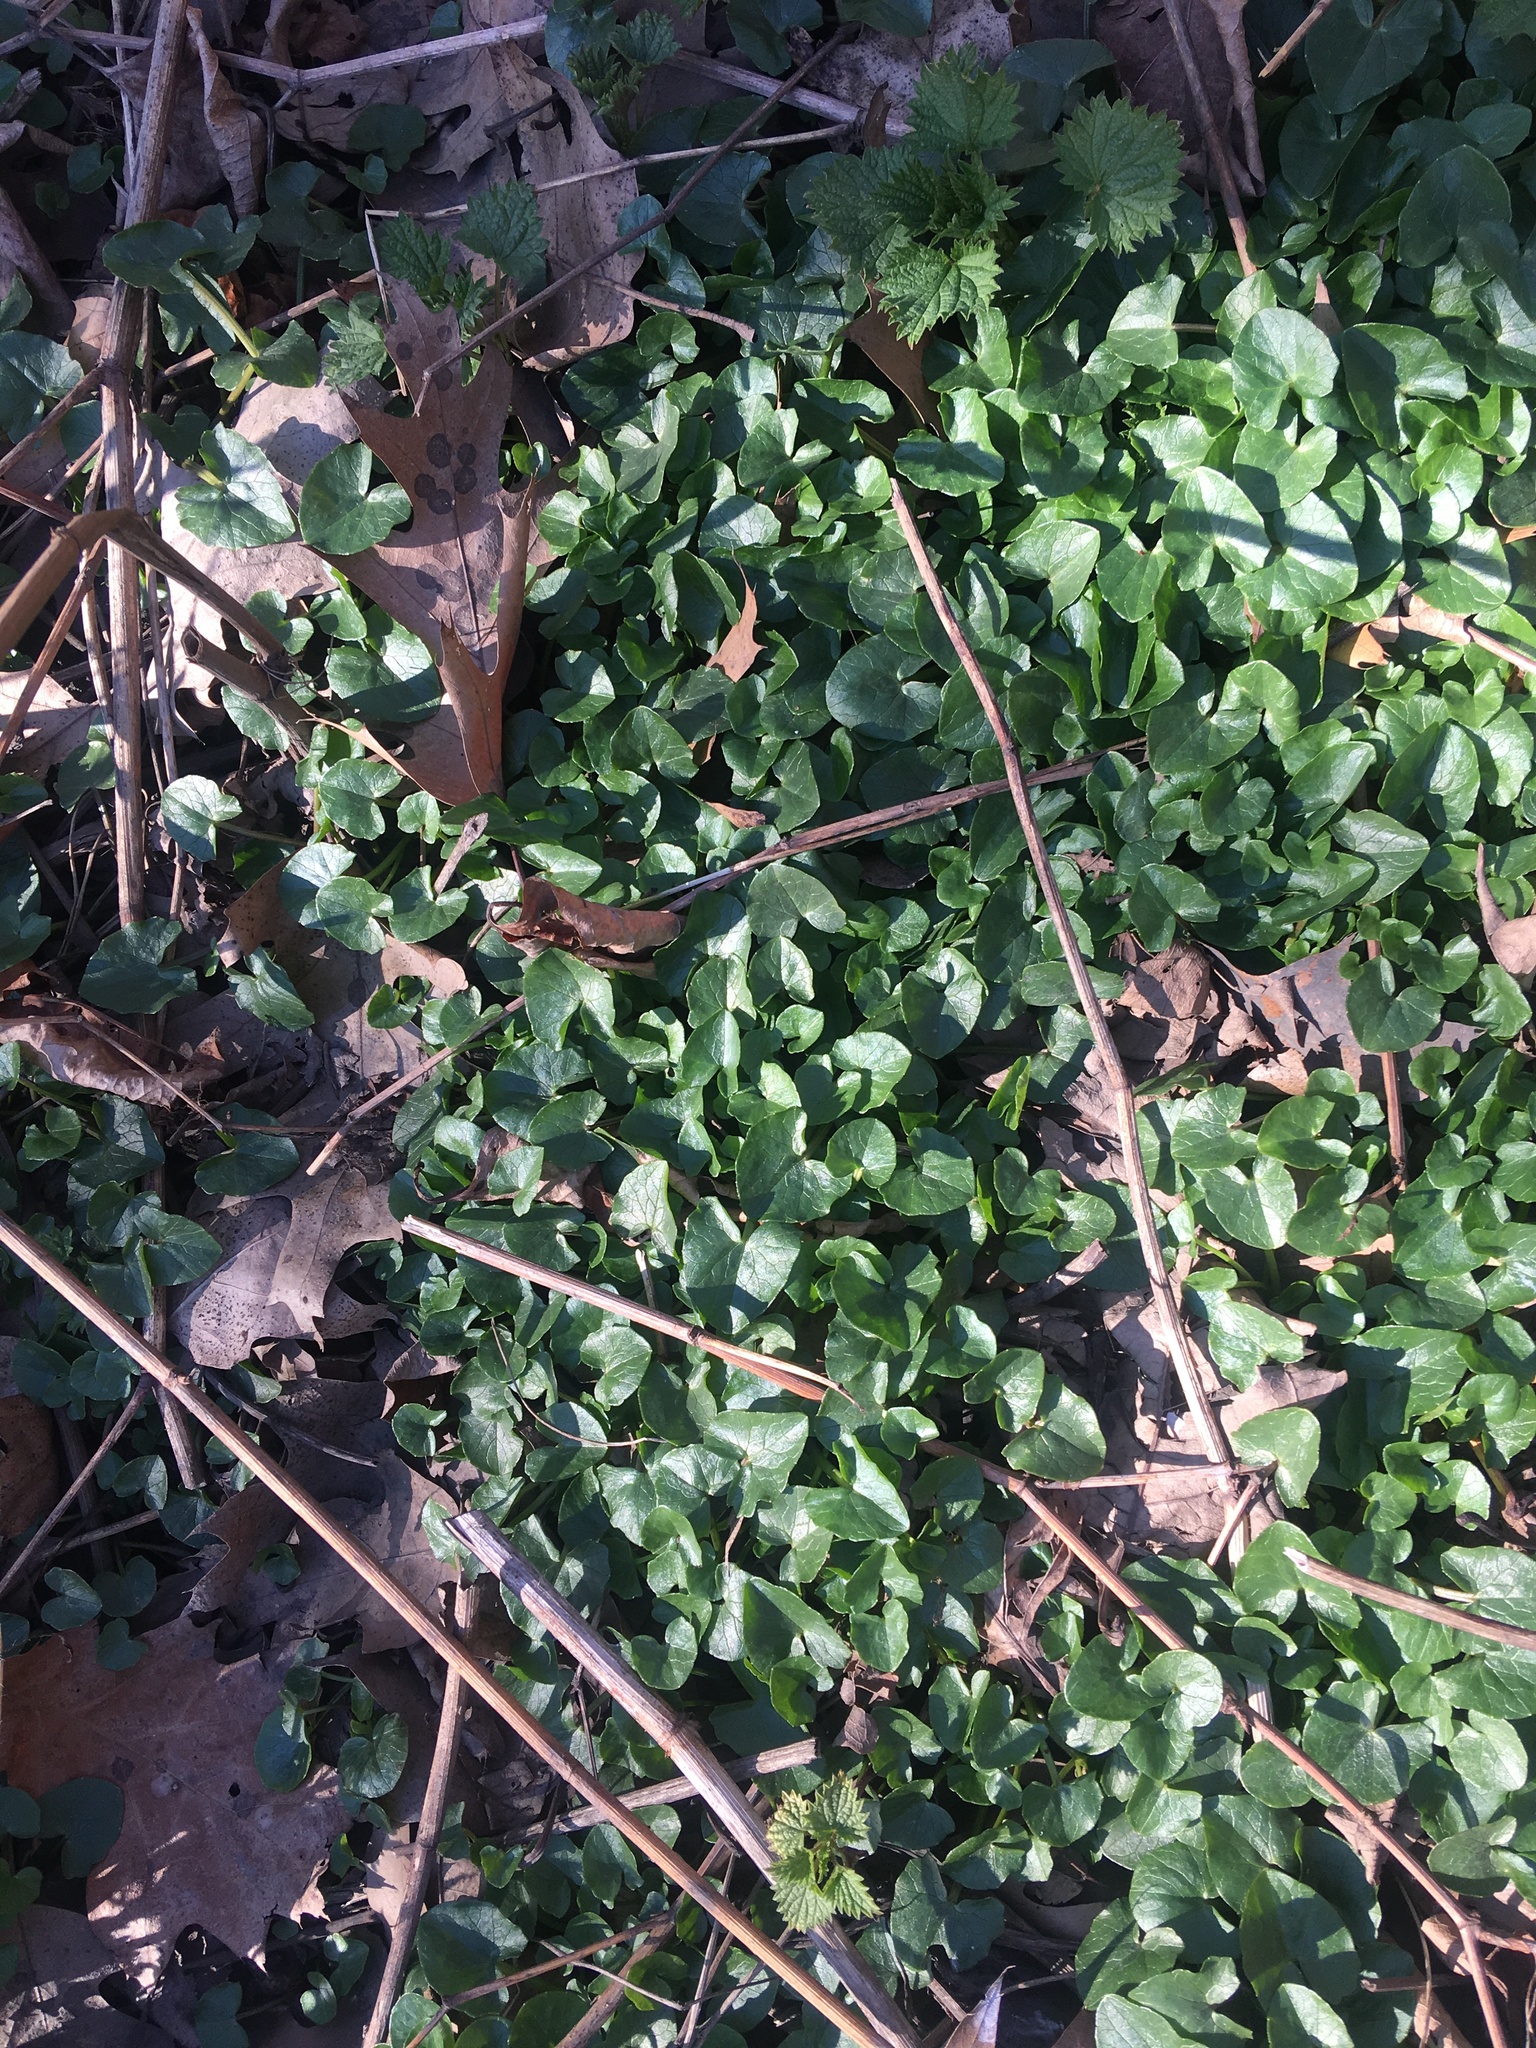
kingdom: Plantae
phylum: Tracheophyta
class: Magnoliopsida
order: Ranunculales
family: Ranunculaceae
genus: Ficaria
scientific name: Ficaria verna
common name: Lesser celandine
